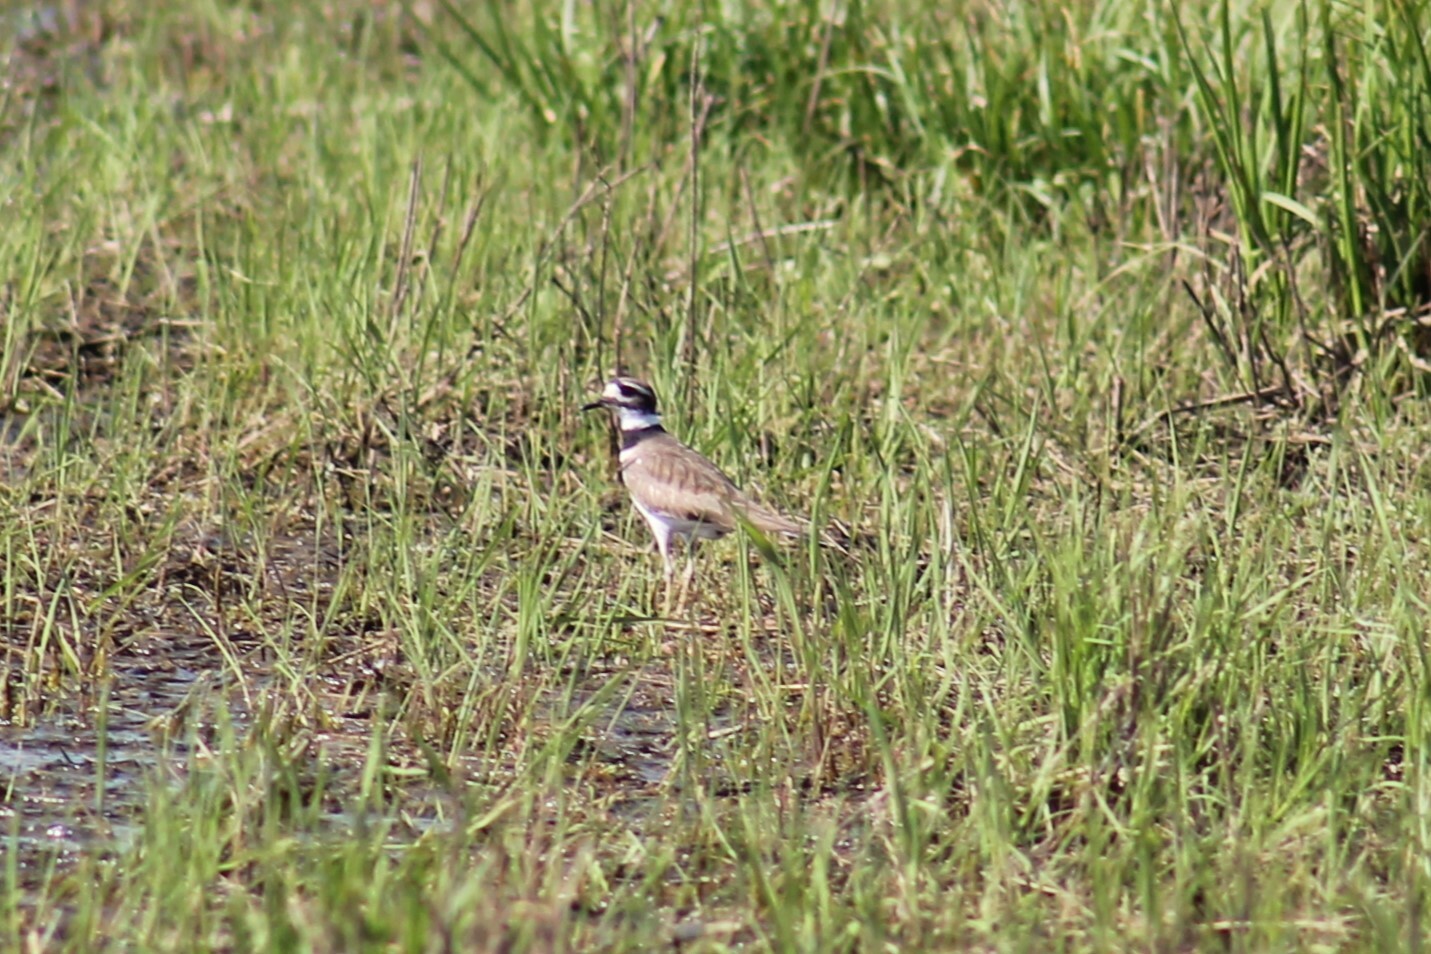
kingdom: Animalia
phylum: Chordata
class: Aves
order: Charadriiformes
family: Charadriidae
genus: Charadrius
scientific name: Charadrius vociferus
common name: Killdeer
